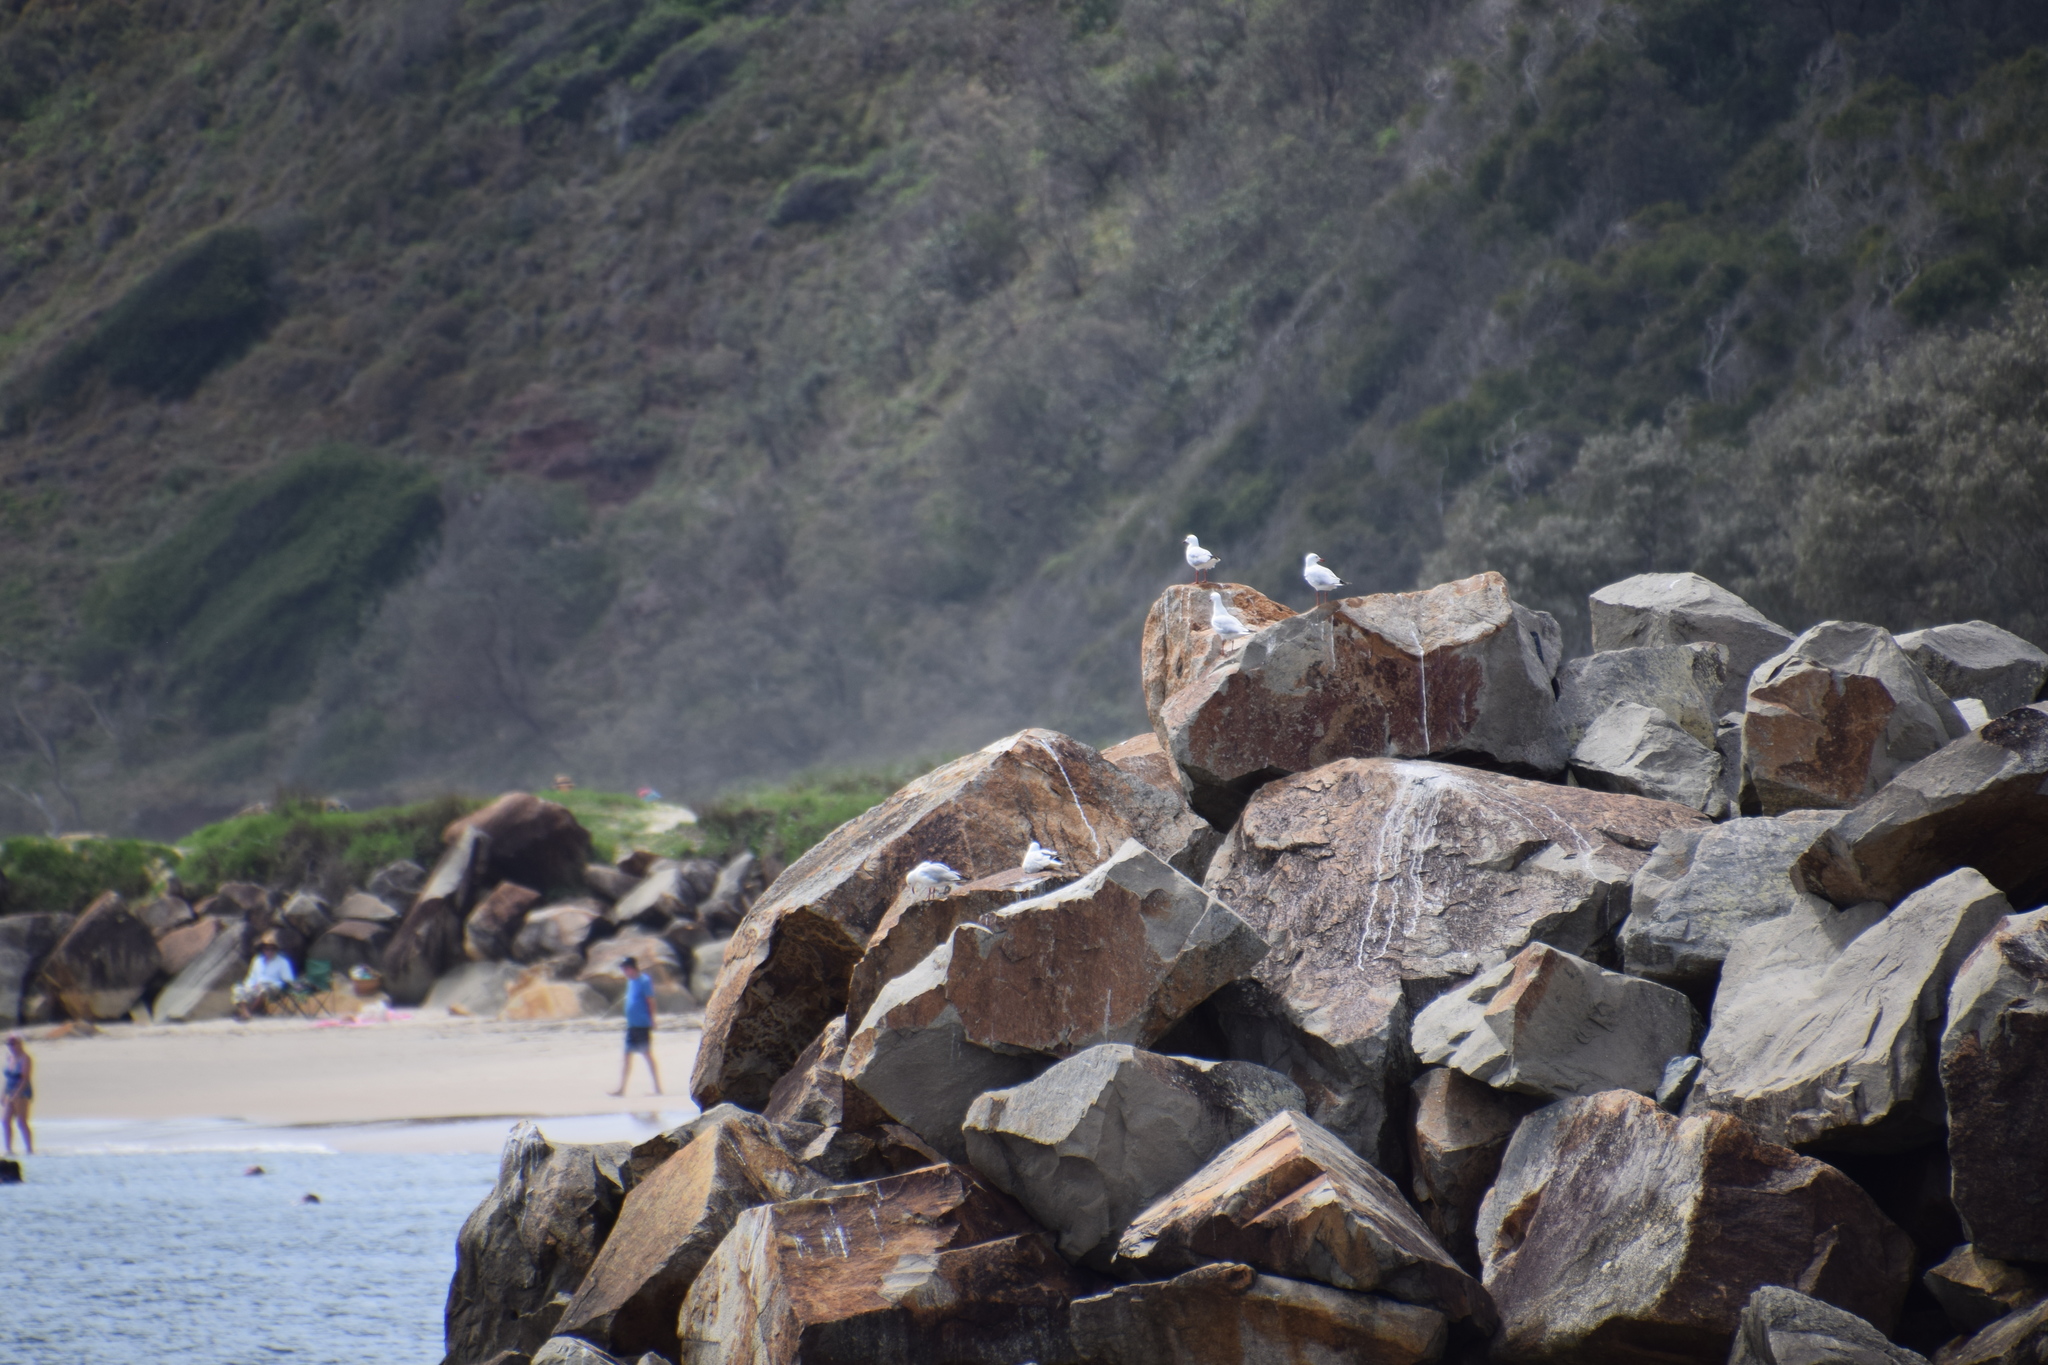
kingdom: Animalia
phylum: Chordata
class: Aves
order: Charadriiformes
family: Laridae
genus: Chroicocephalus
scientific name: Chroicocephalus novaehollandiae
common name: Silver gull
